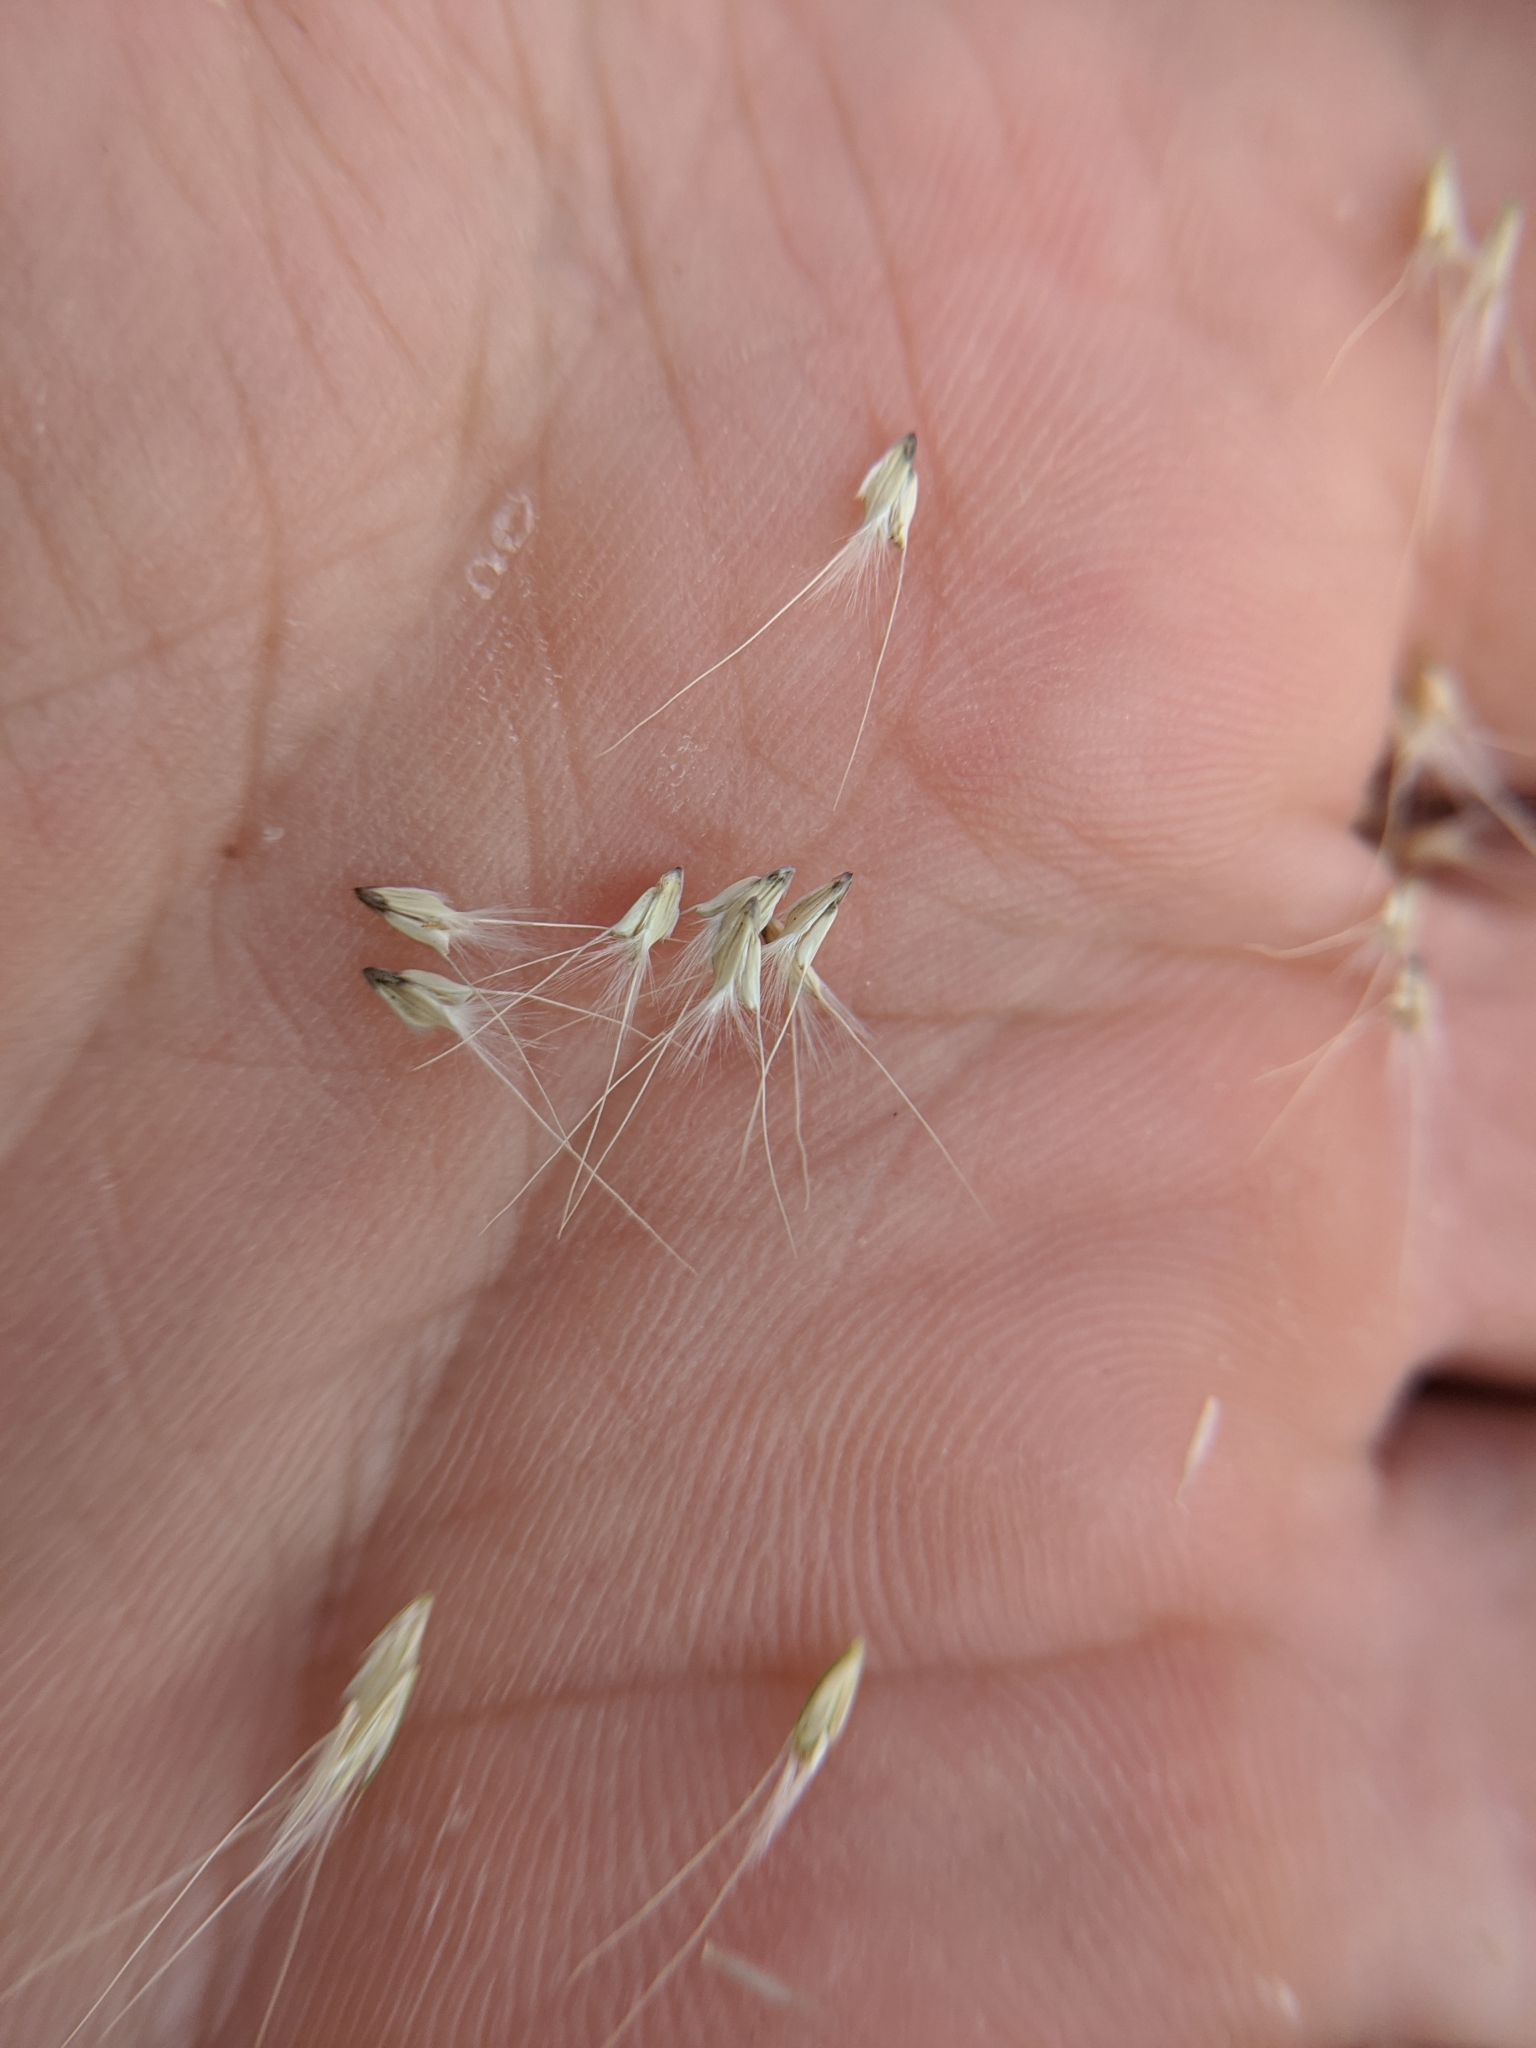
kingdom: Plantae
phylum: Tracheophyta
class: Liliopsida
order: Poales
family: Poaceae
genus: Chloris
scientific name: Chloris virgata
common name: Feathery rhodes-grass
